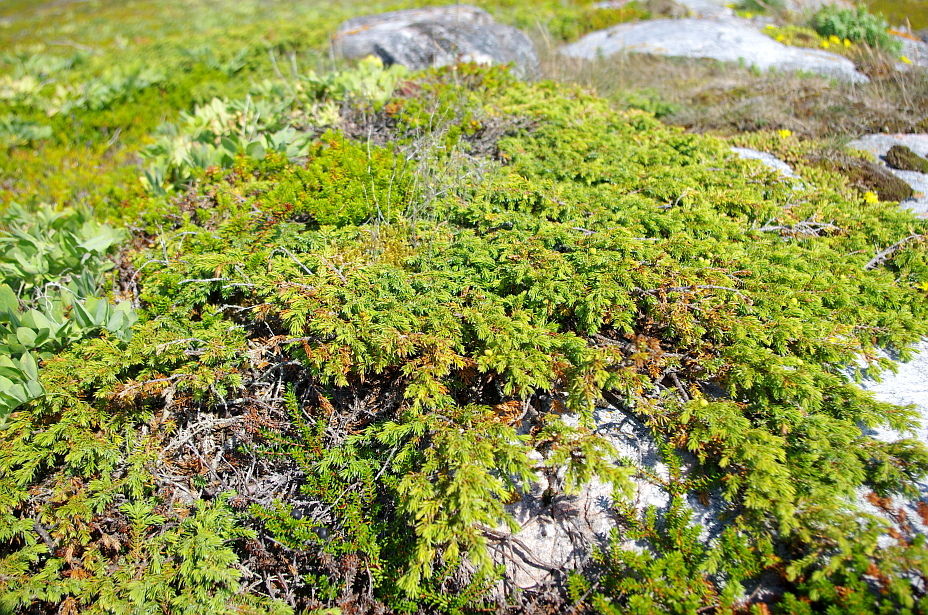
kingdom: Plantae
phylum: Tracheophyta
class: Pinopsida
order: Pinales
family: Cupressaceae
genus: Juniperus
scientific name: Juniperus communis
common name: Common juniper
